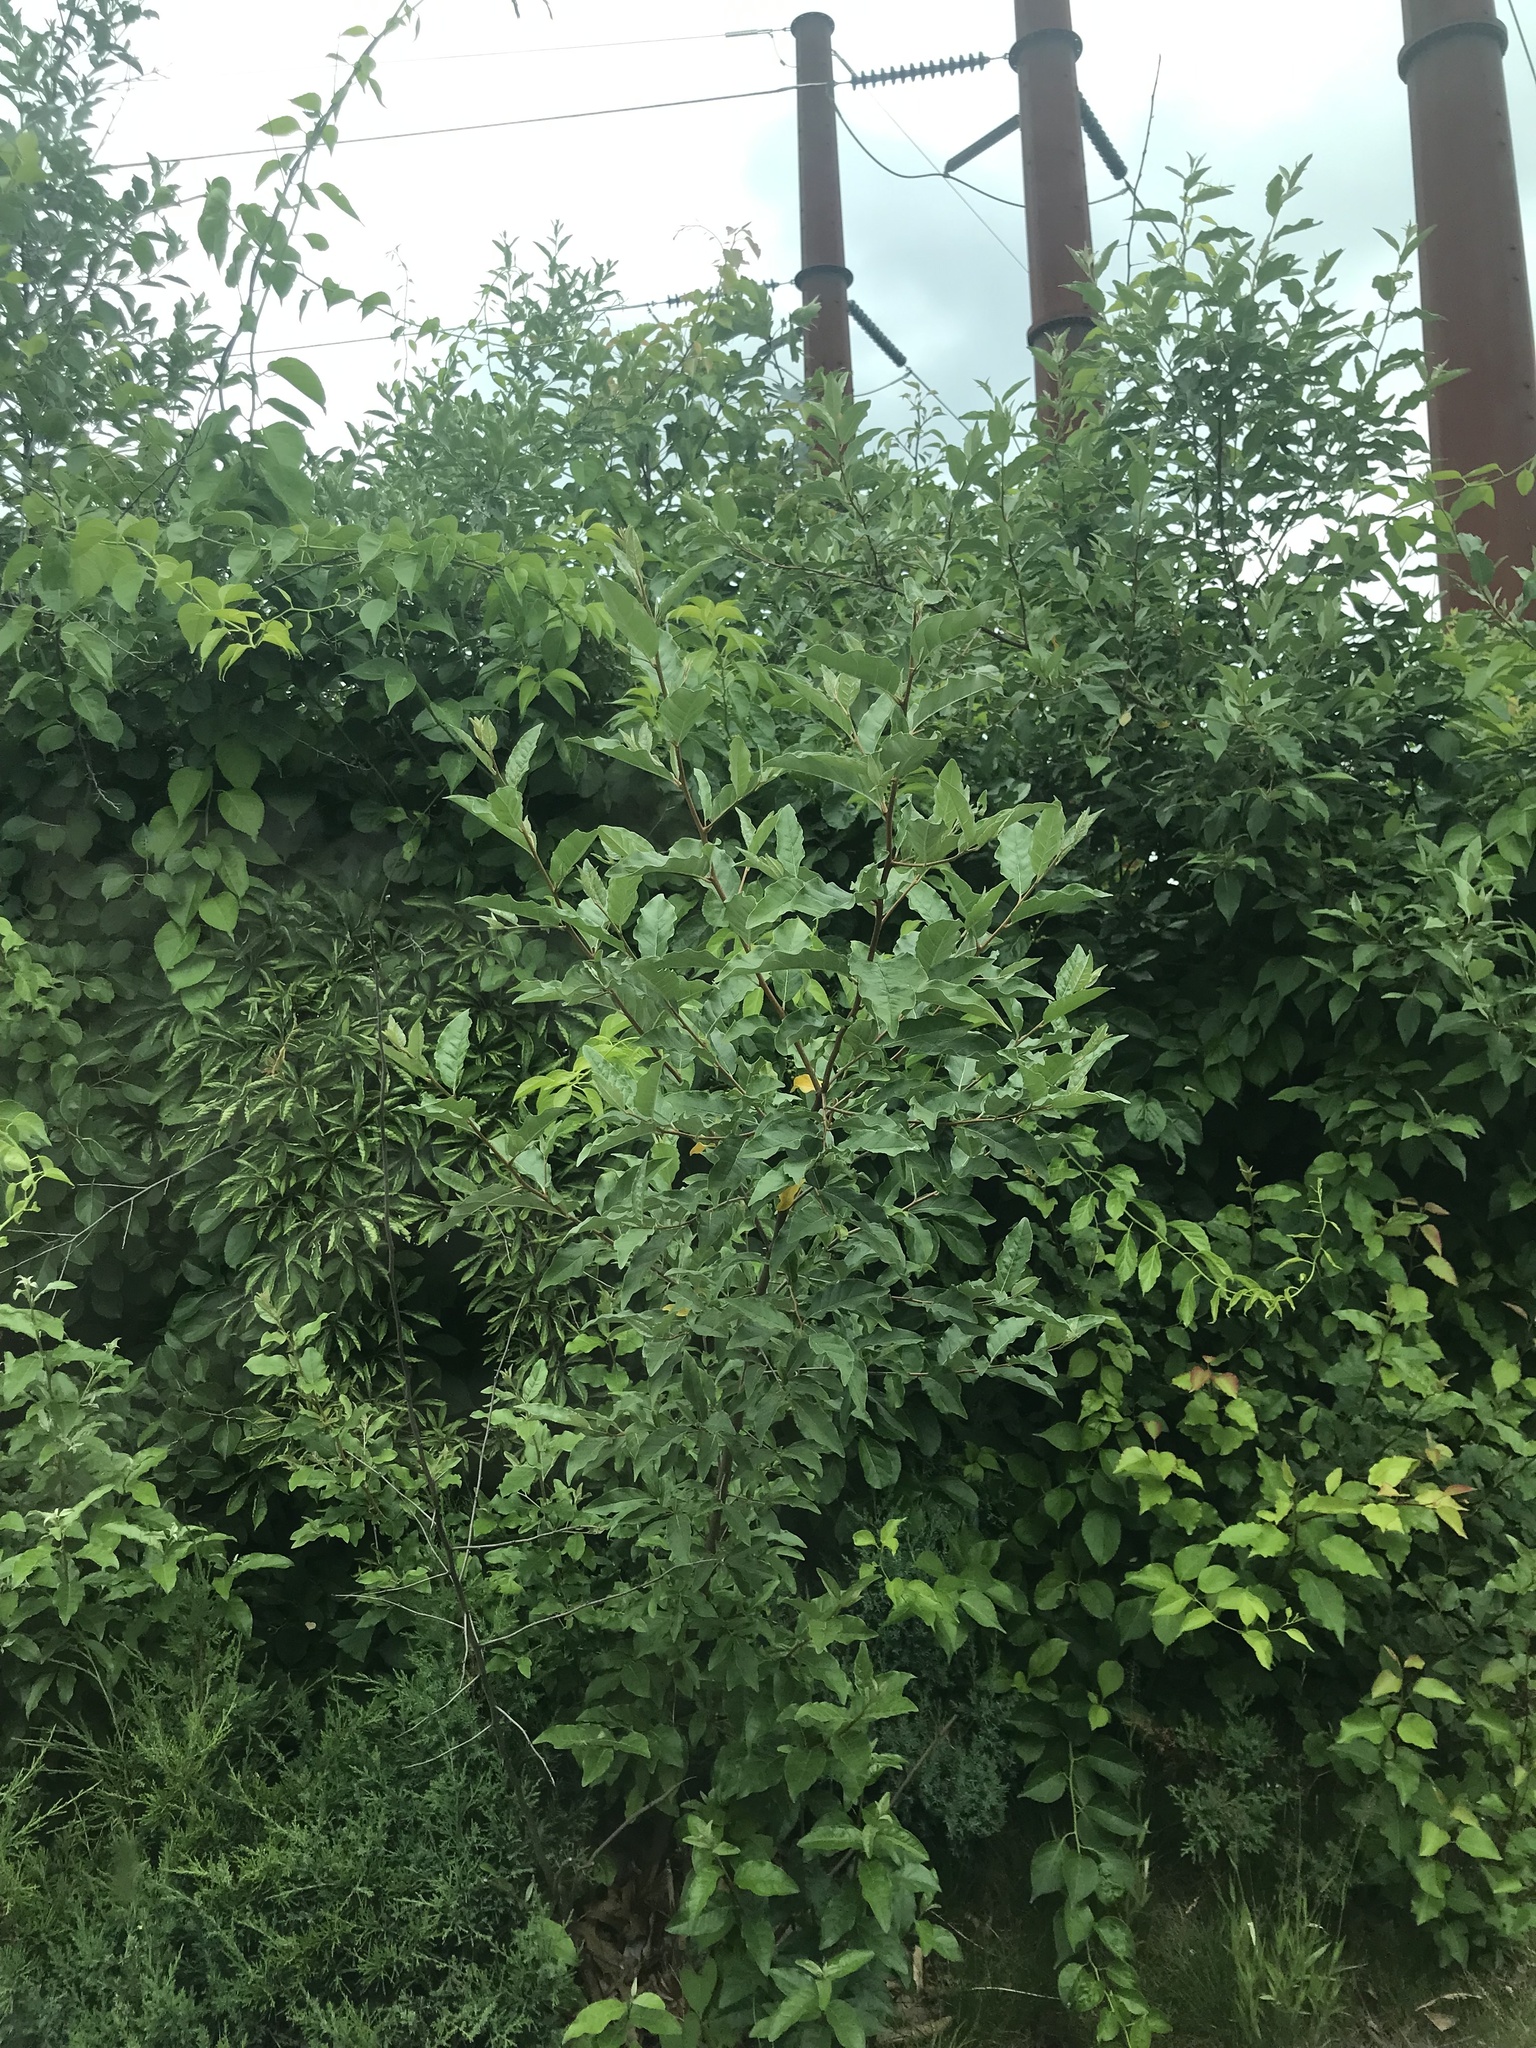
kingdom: Plantae
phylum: Tracheophyta
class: Magnoliopsida
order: Rosales
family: Elaeagnaceae
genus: Elaeagnus
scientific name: Elaeagnus umbellata
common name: Autumn olive
